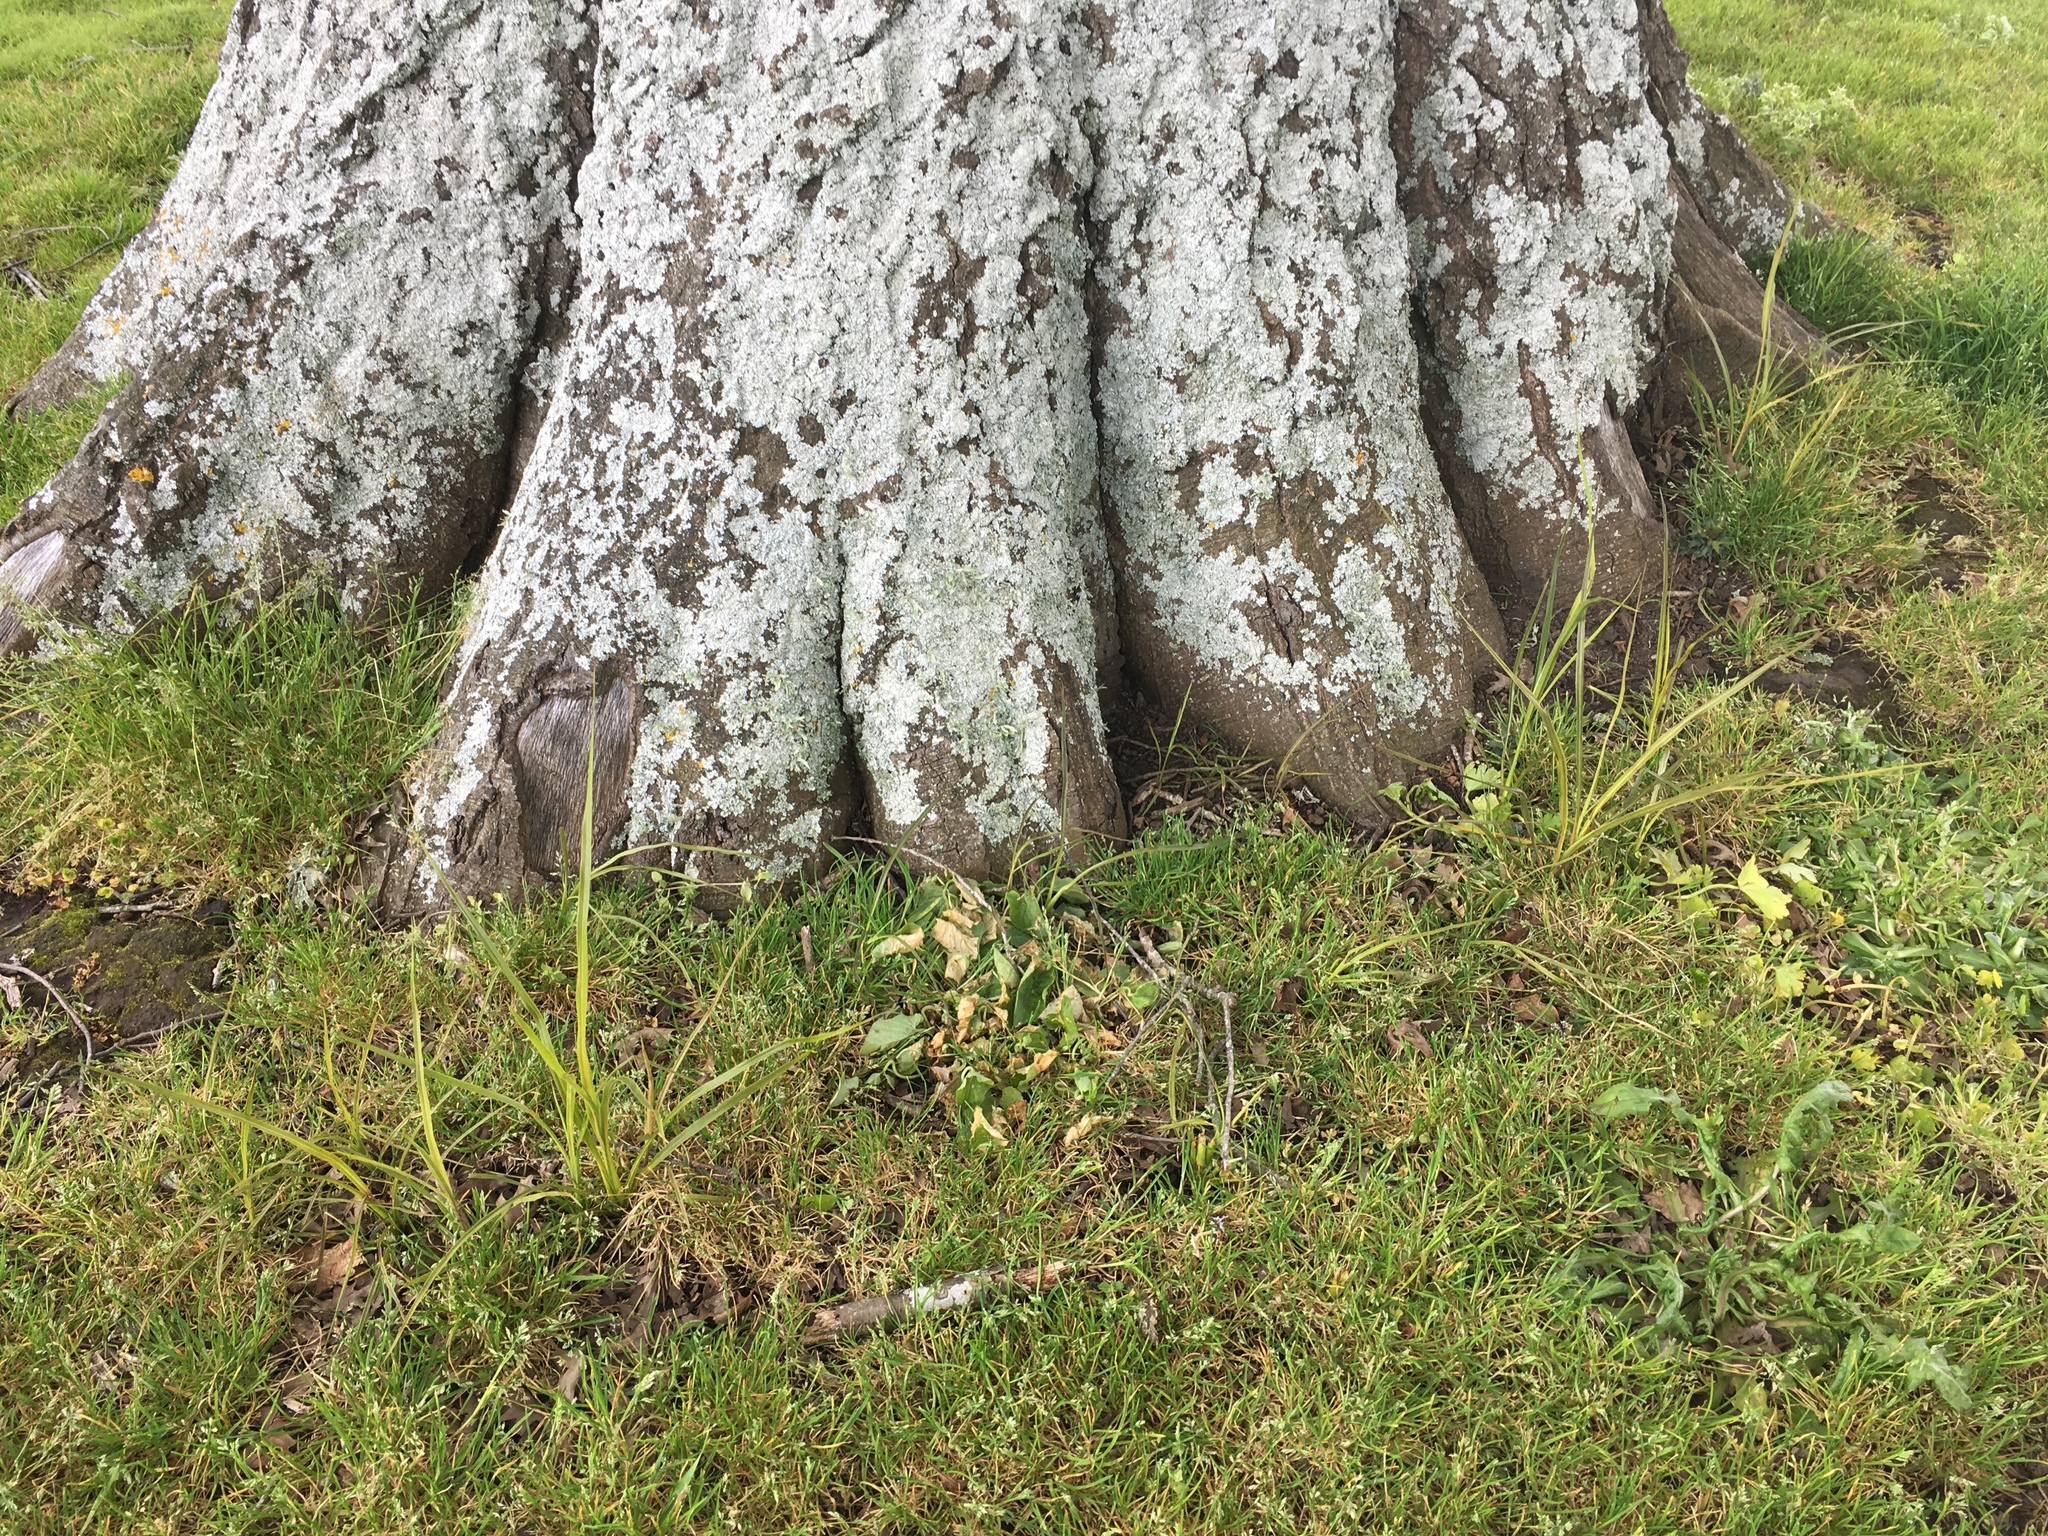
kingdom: Plantae
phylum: Tracheophyta
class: Liliopsida
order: Asparagales
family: Asparagaceae
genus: Cordyline
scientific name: Cordyline australis
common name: Cabbage-palm
